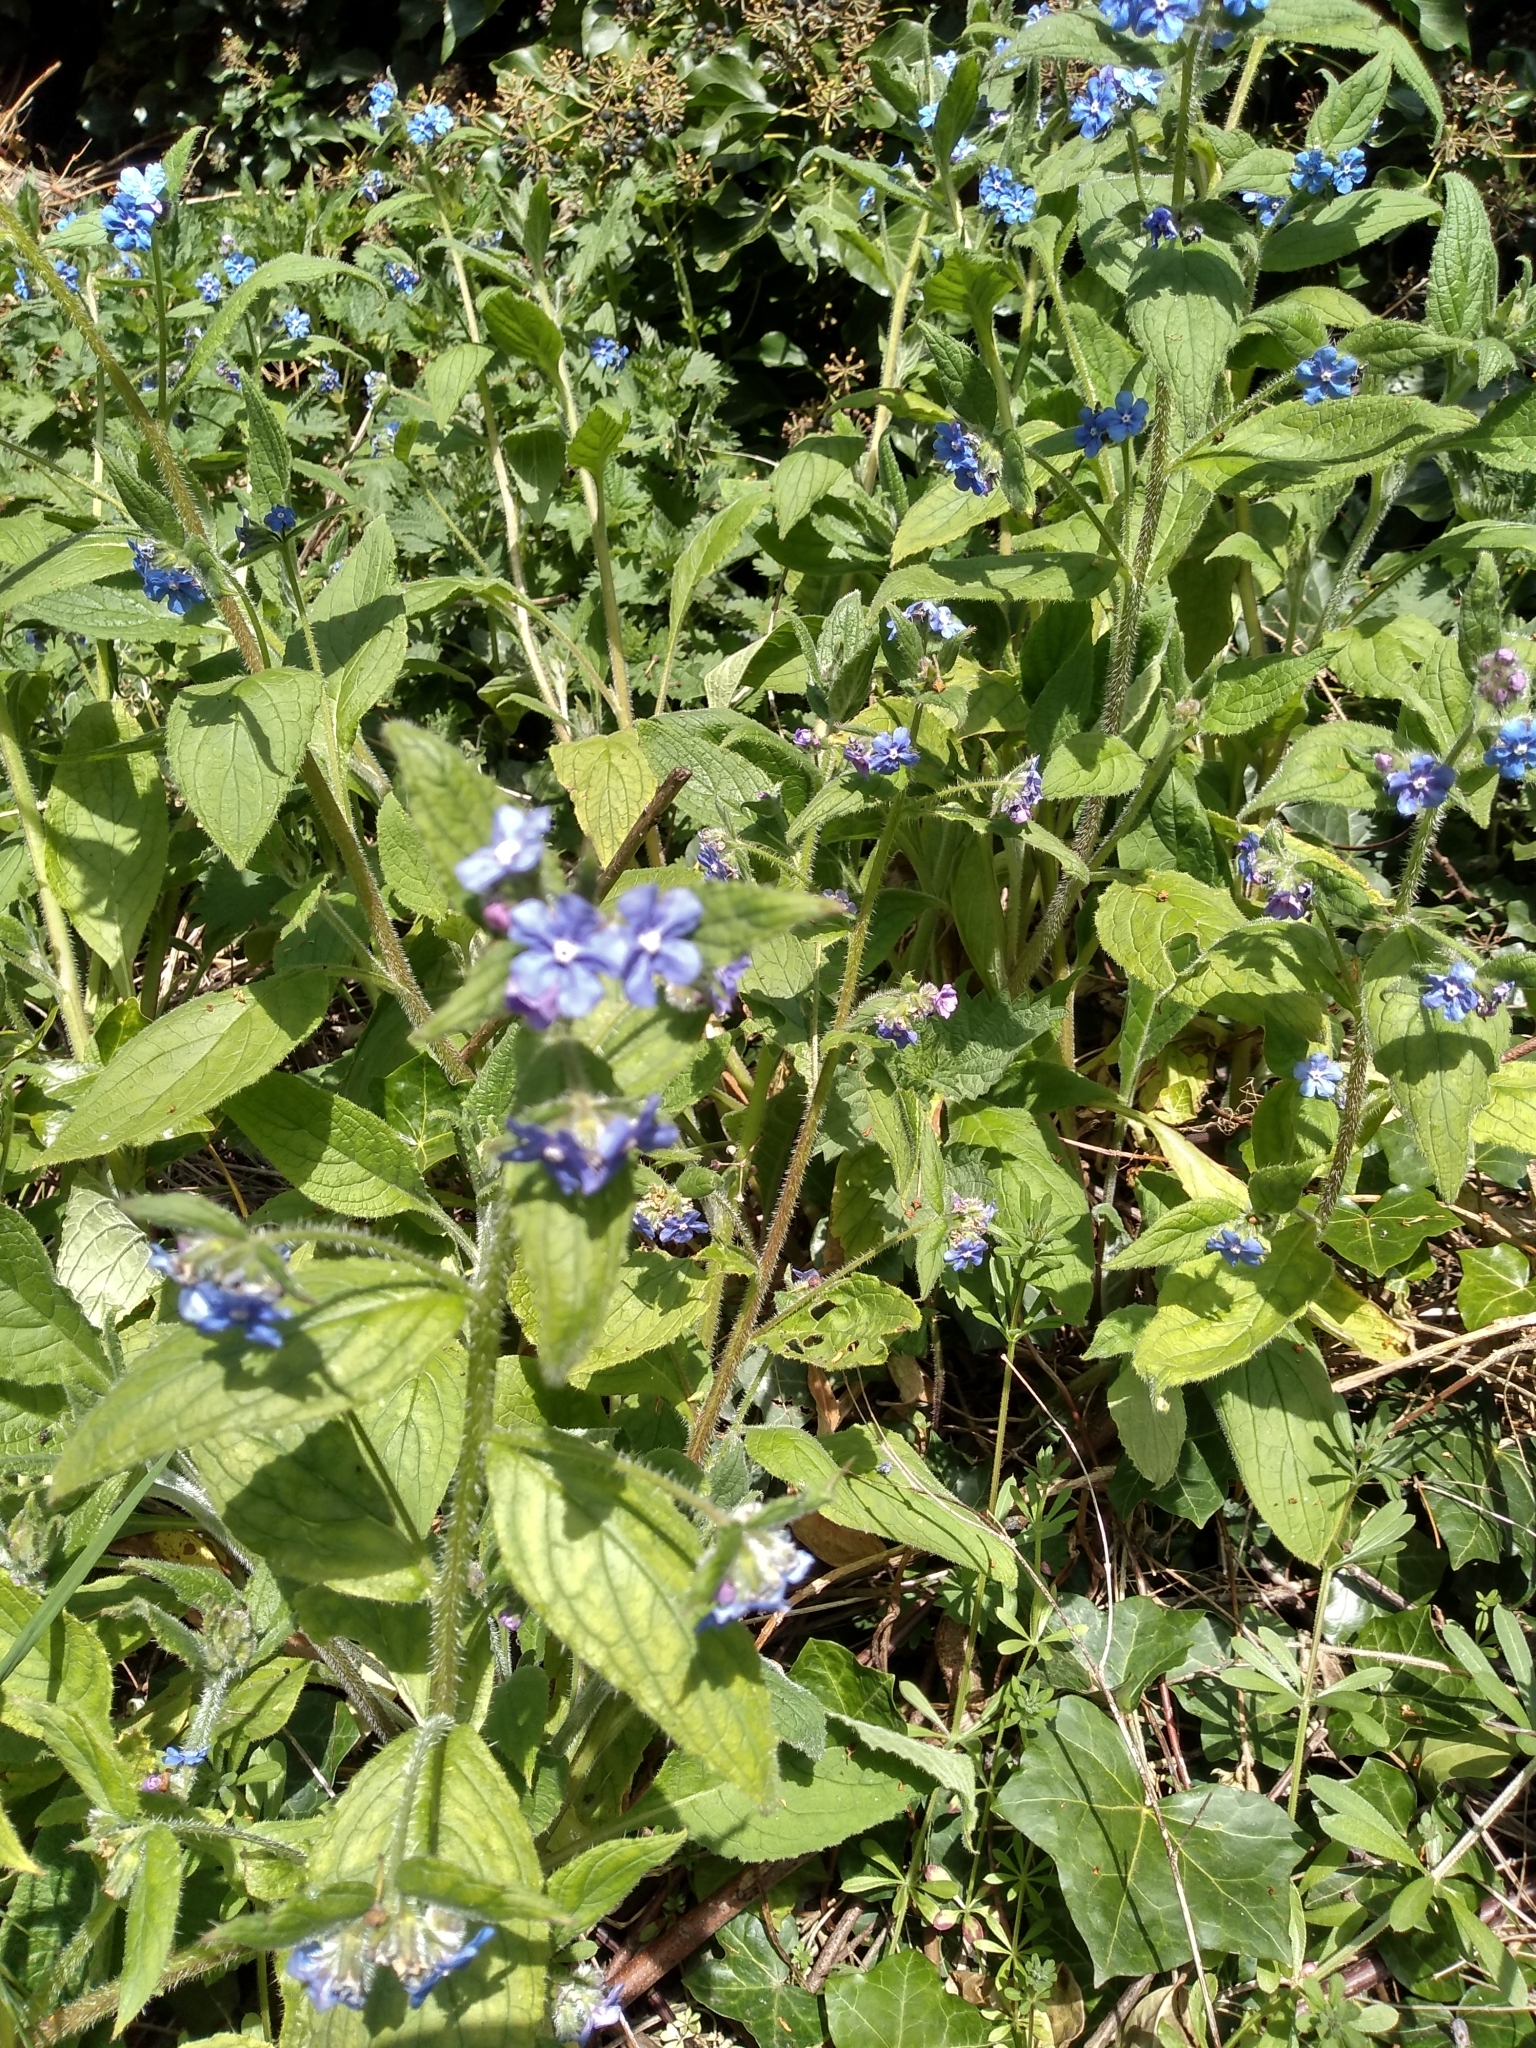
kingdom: Plantae
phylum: Tracheophyta
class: Magnoliopsida
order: Boraginales
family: Boraginaceae
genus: Pentaglottis
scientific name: Pentaglottis sempervirens
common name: Green alkanet
